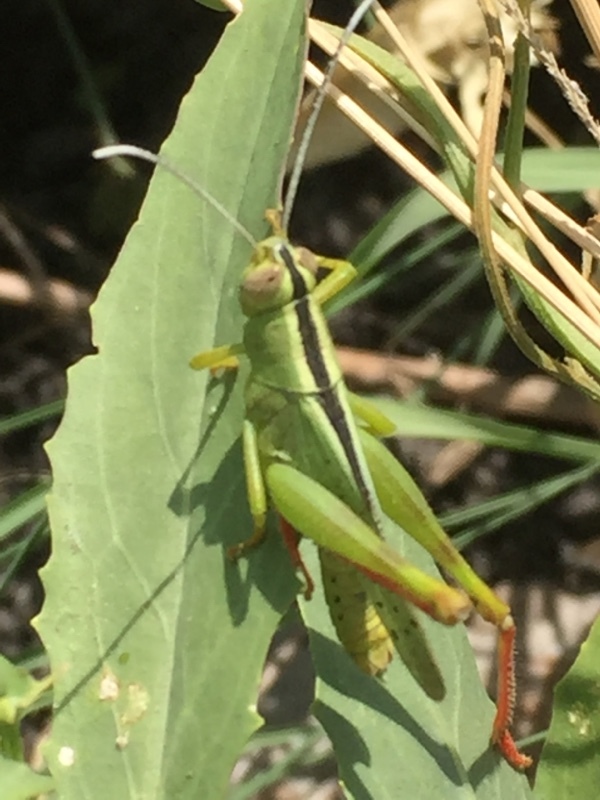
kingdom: Animalia
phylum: Arthropoda
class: Insecta
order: Orthoptera
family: Acrididae
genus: Heteracris
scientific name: Heteracris pterosticha
